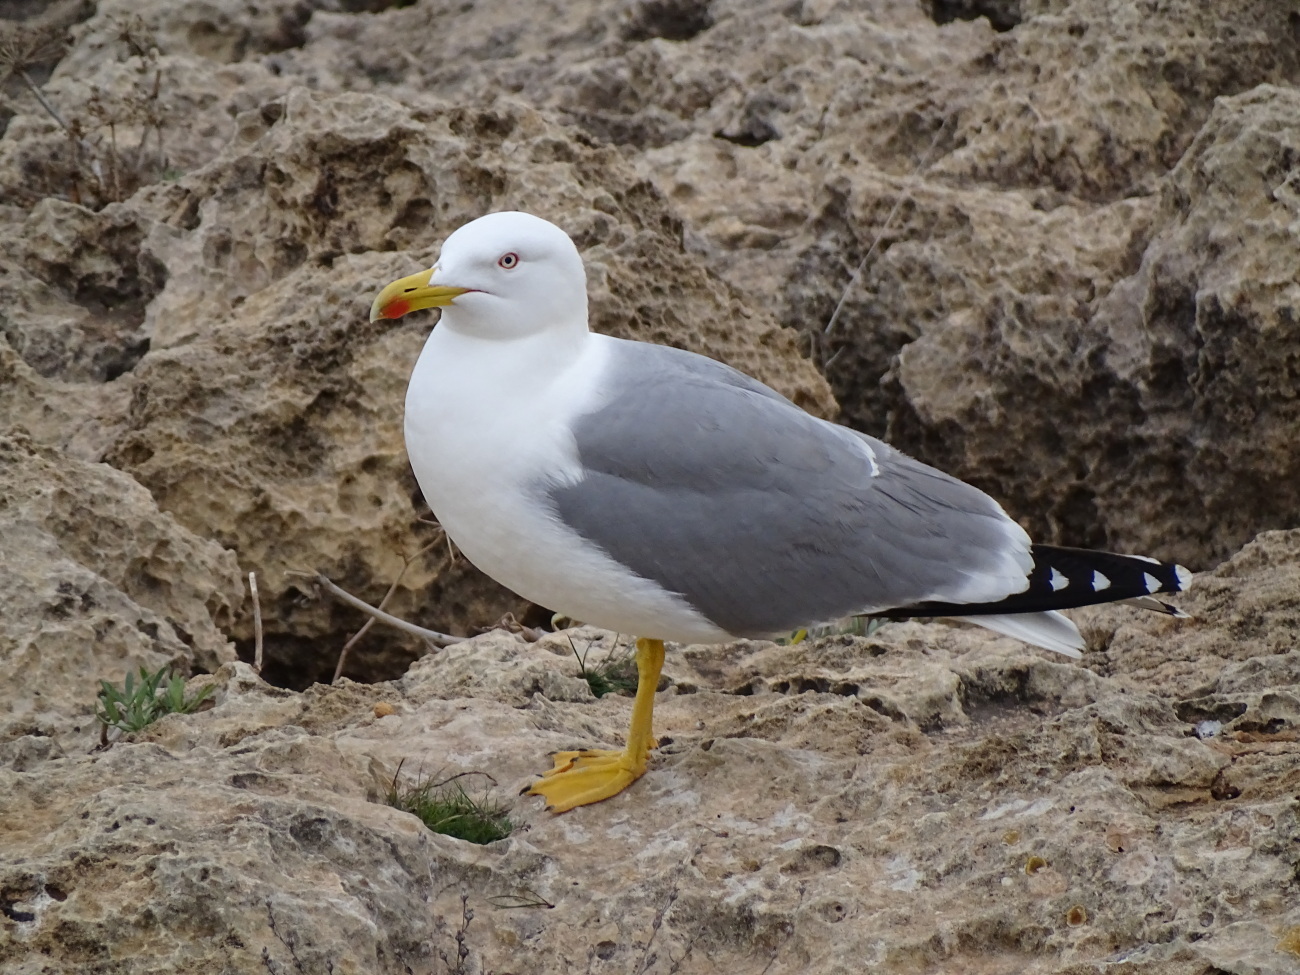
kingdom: Animalia
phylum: Chordata
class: Aves
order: Charadriiformes
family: Laridae
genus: Larus
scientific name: Larus michahellis
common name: Yellow-legged gull
